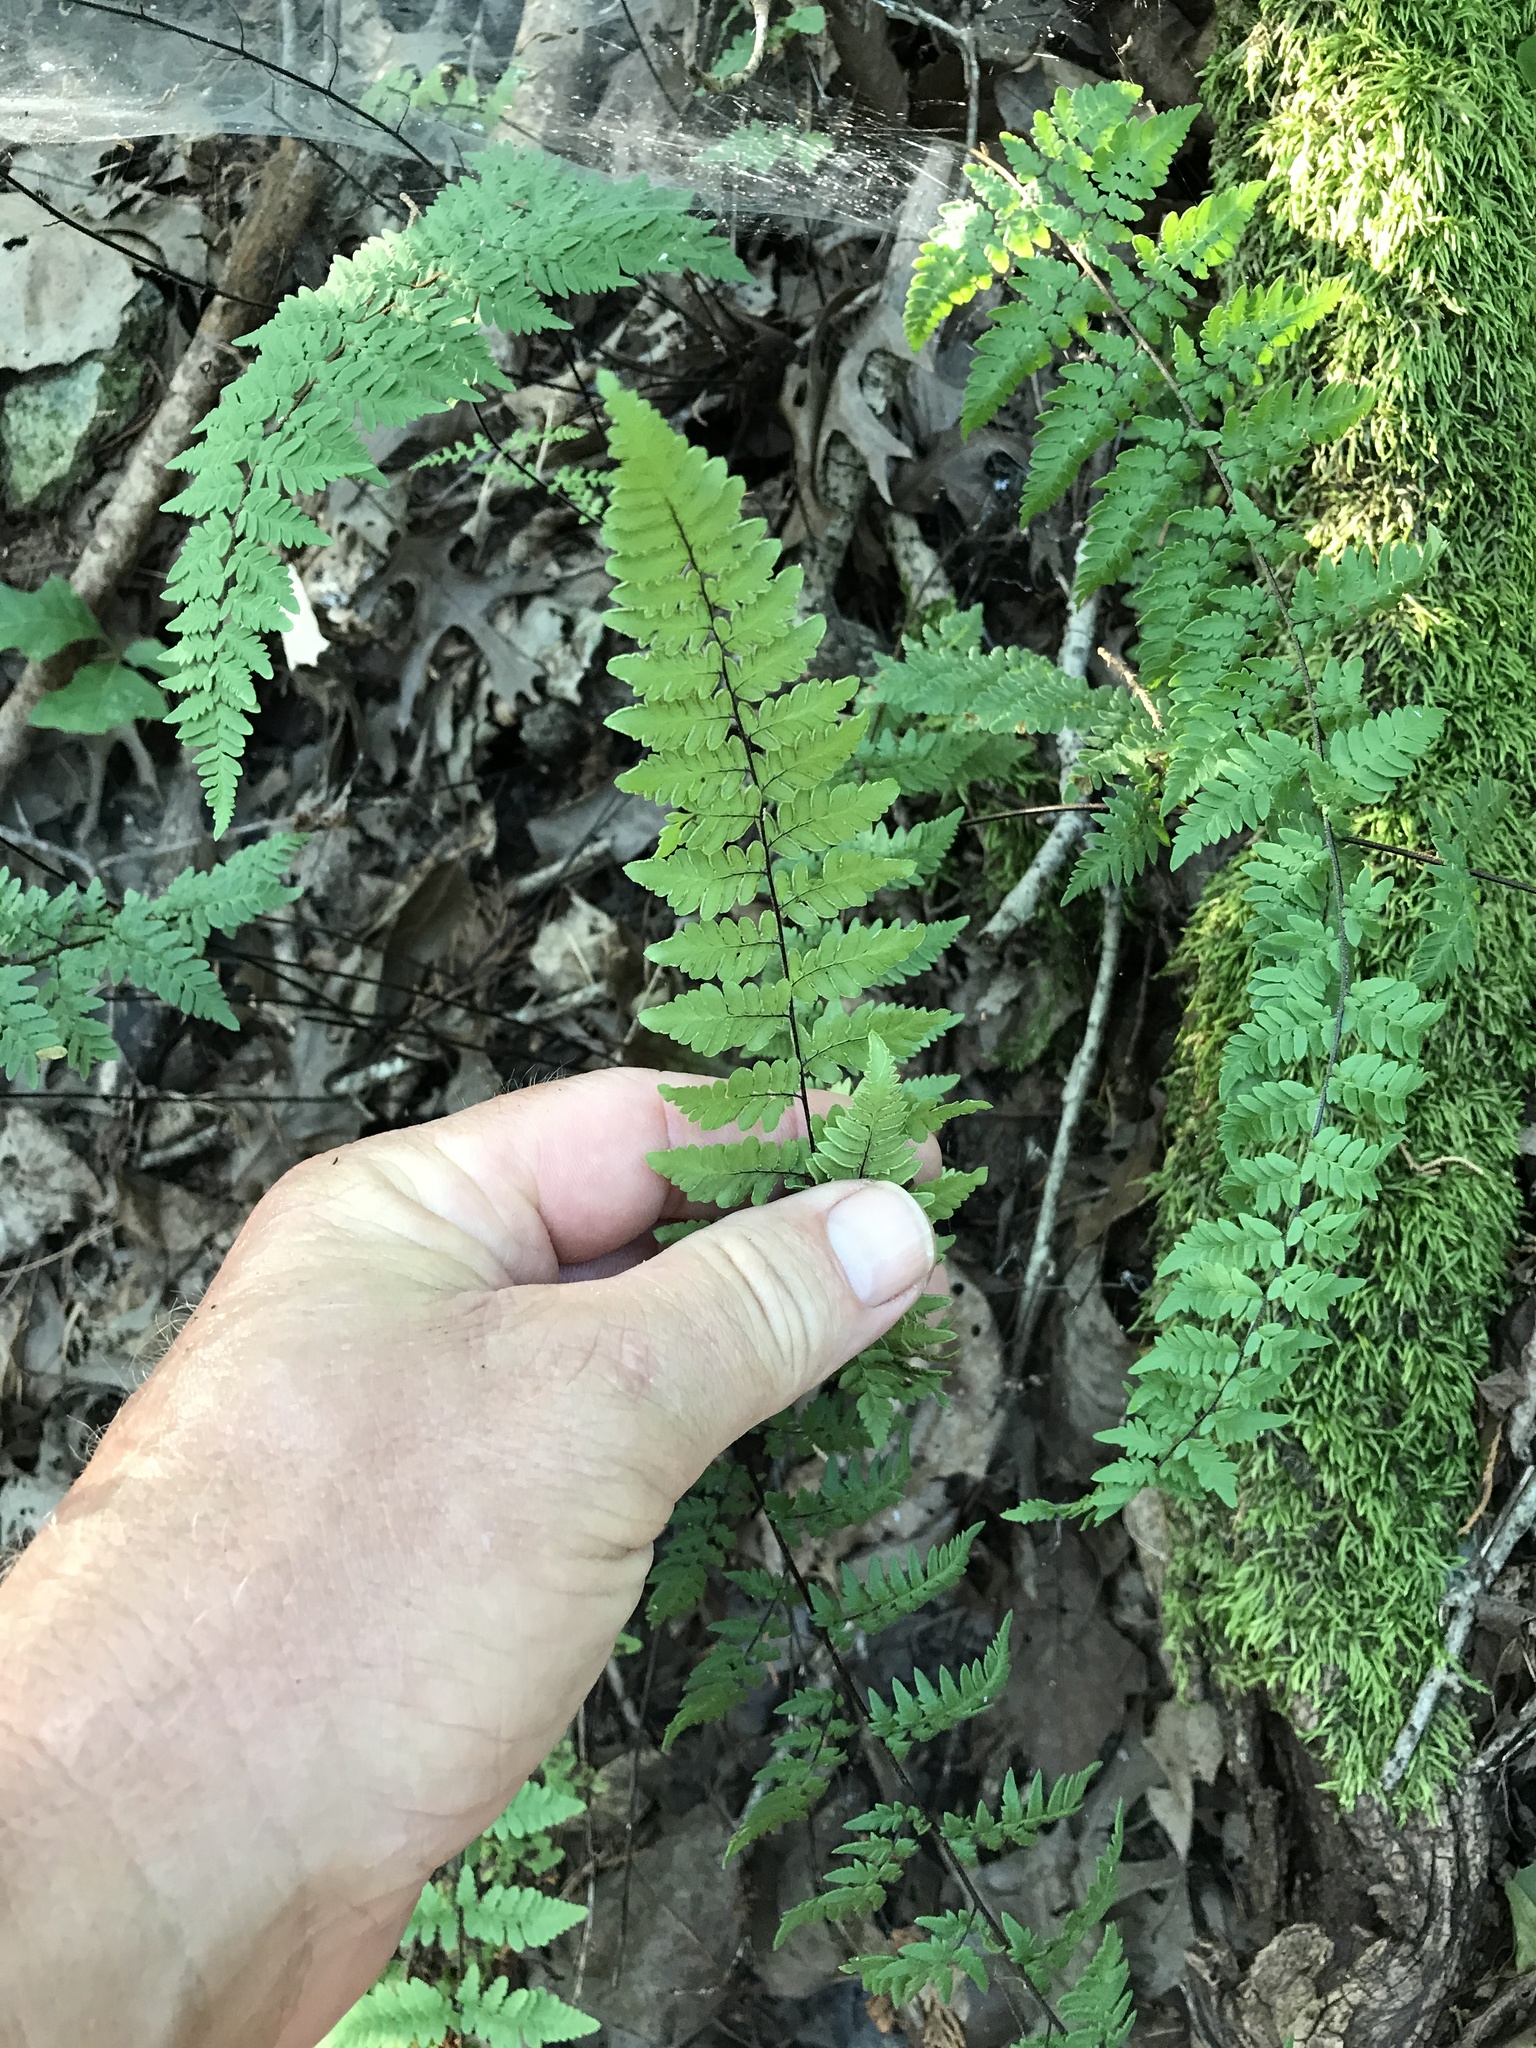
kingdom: Plantae
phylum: Tracheophyta
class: Polypodiopsida
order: Polypodiales
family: Pteridaceae
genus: Myriopteris
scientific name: Myriopteris alabamensis
